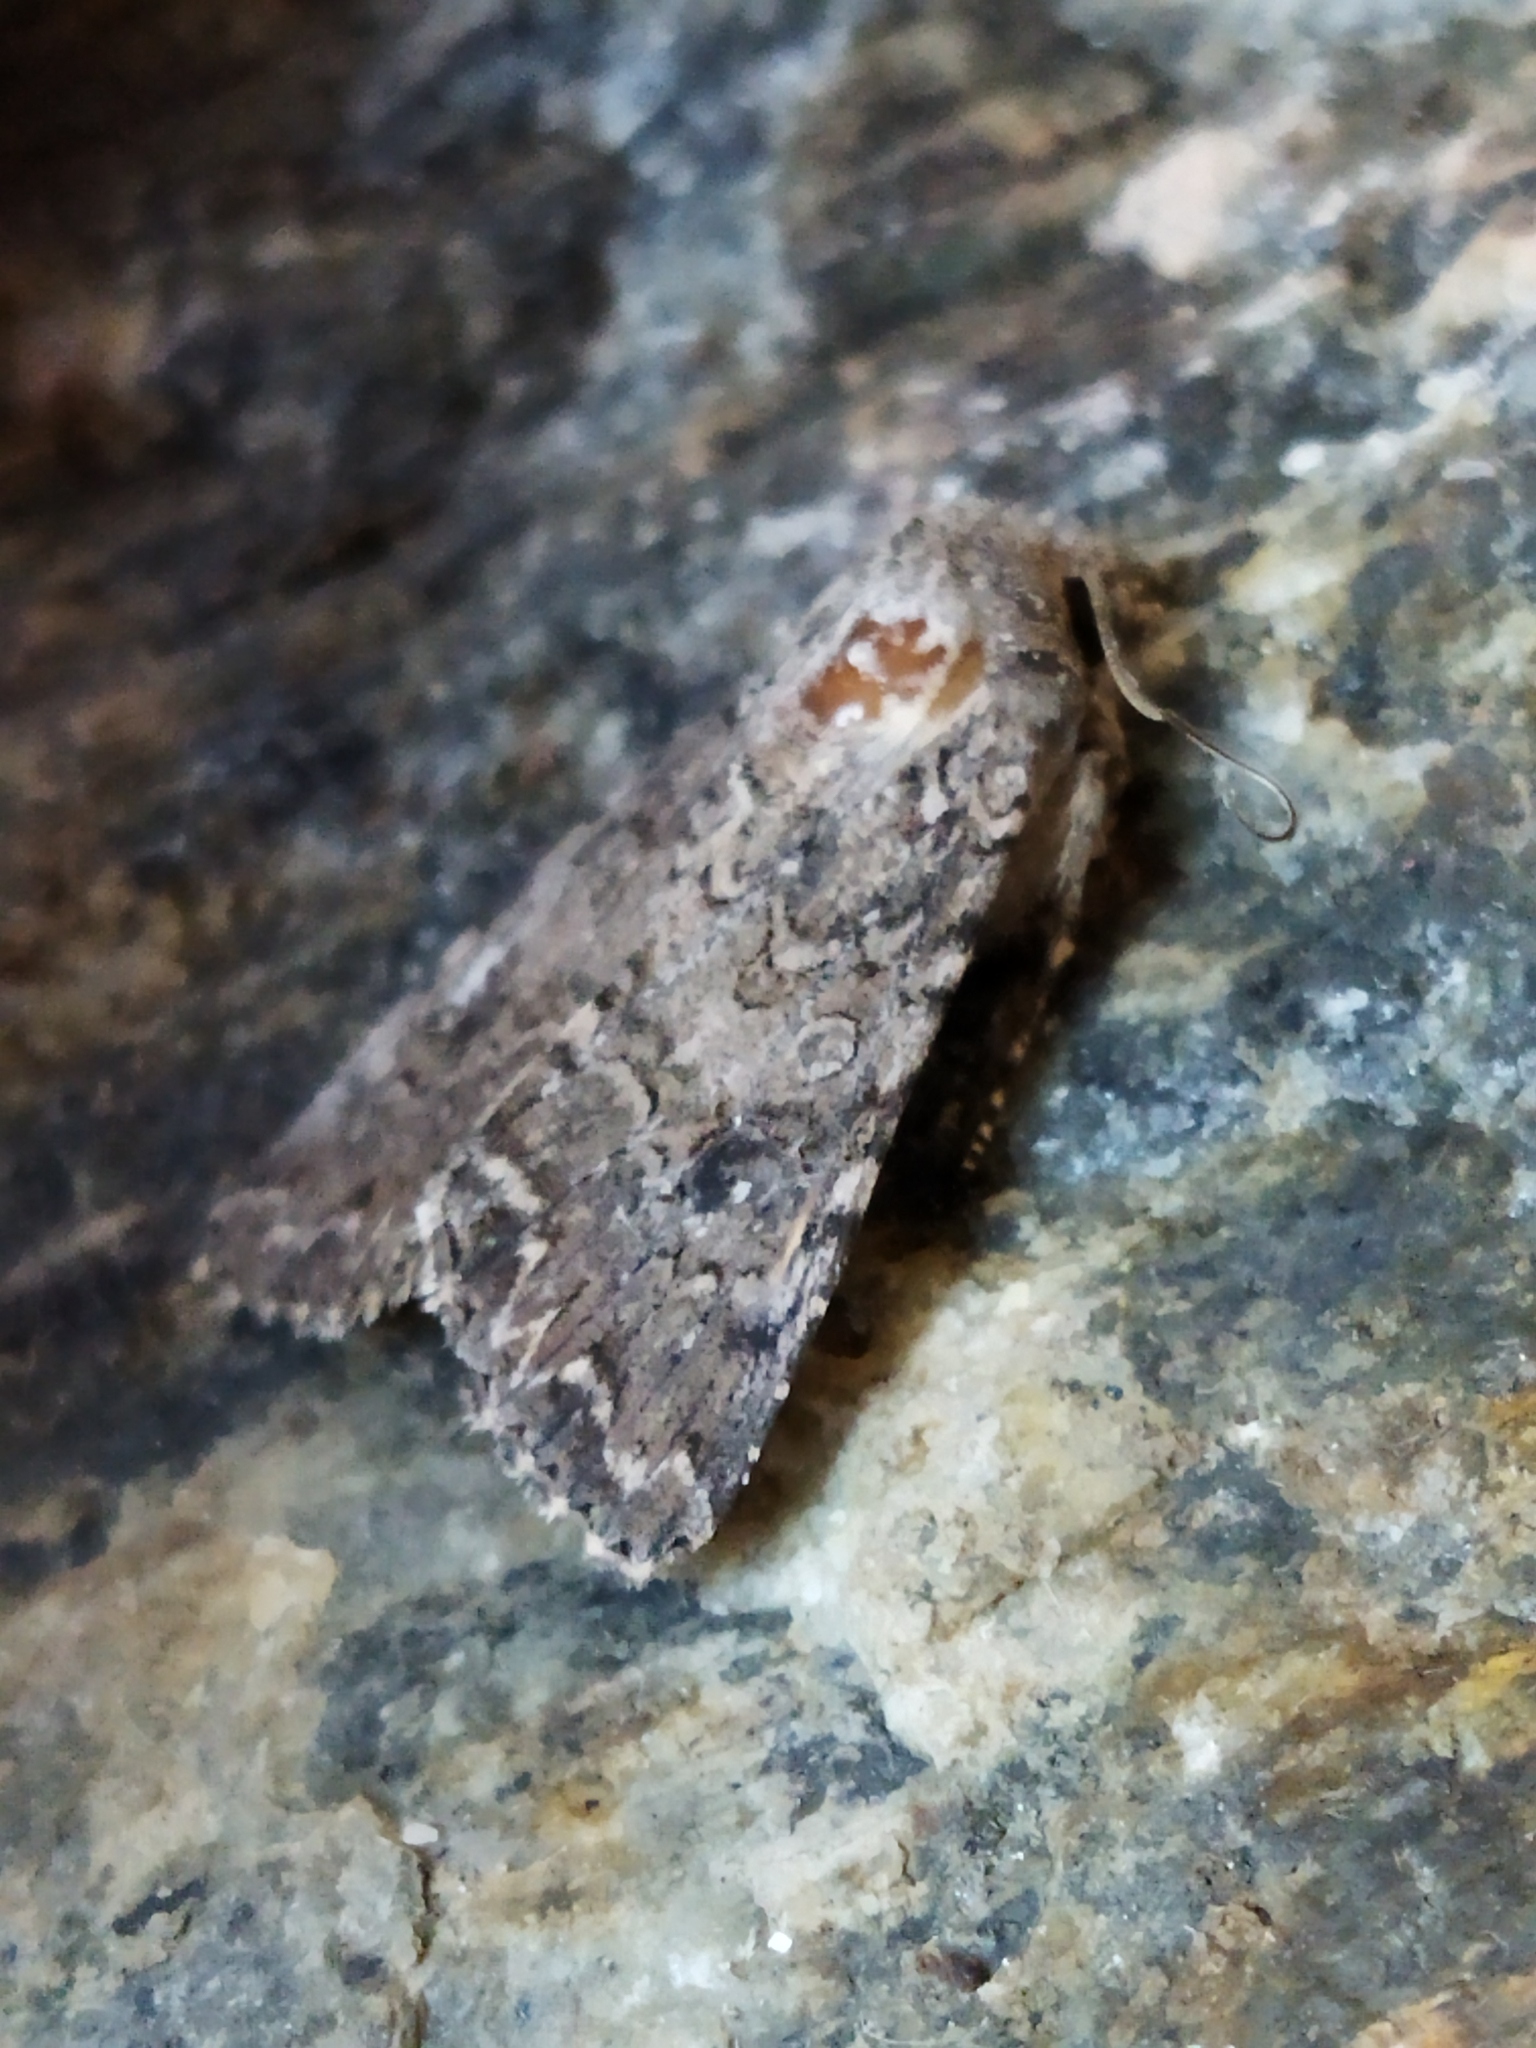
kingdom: Animalia
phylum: Arthropoda
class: Insecta
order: Lepidoptera
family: Noctuidae
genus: Anarta
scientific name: Anarta trifolii
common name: Clover cutworm moth
